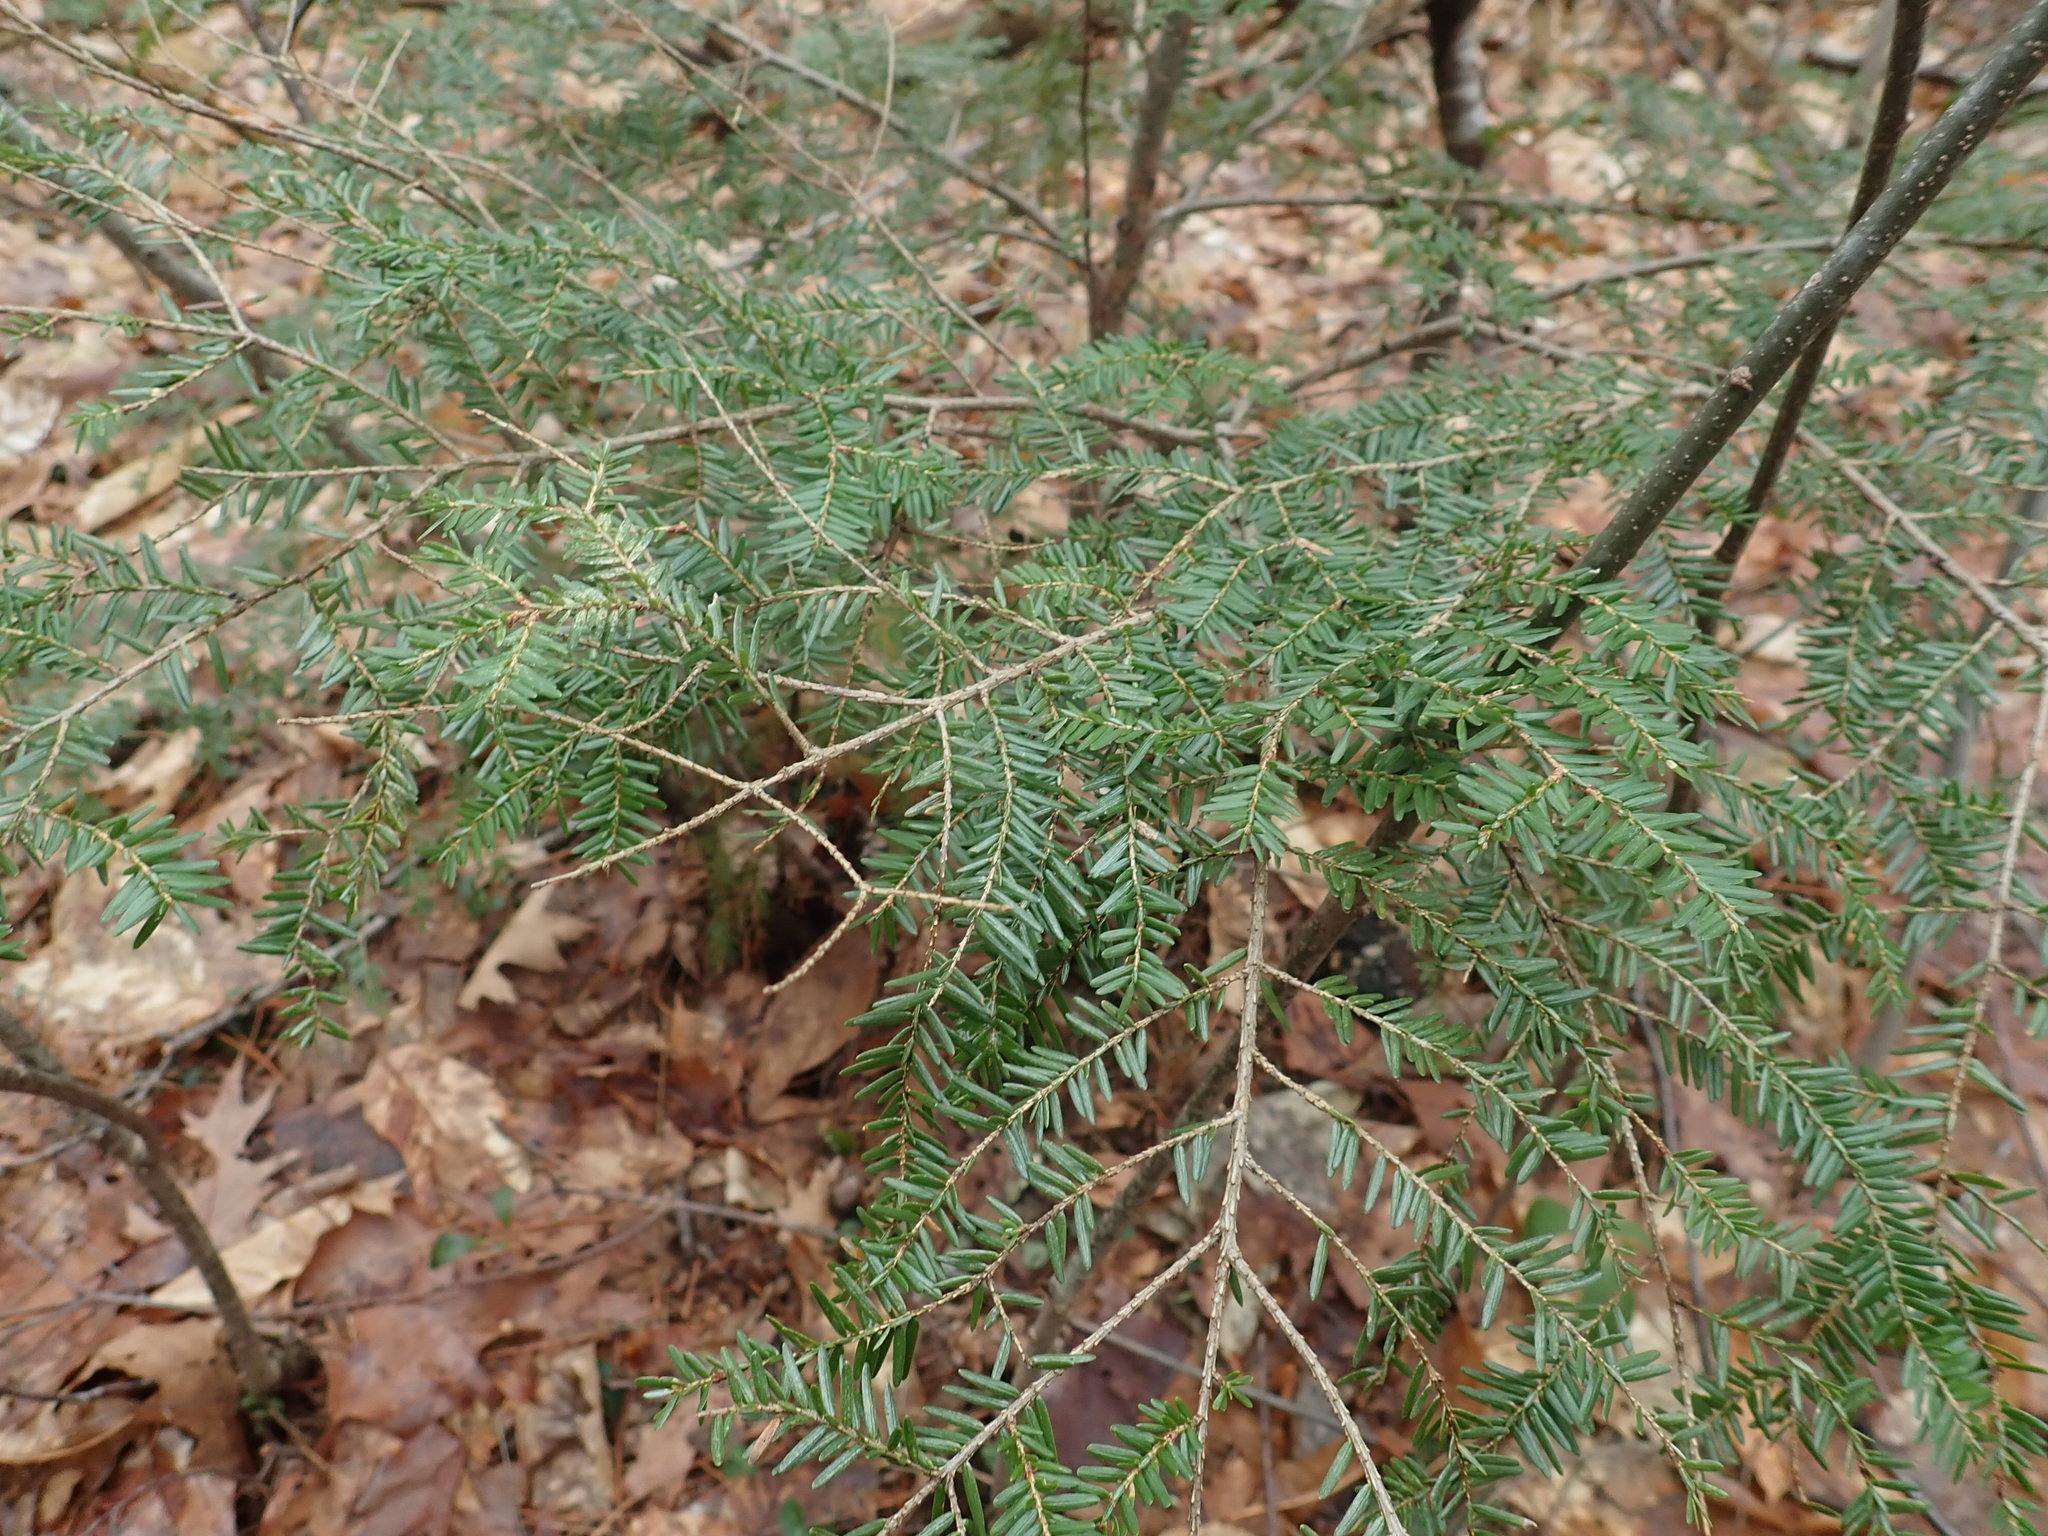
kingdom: Plantae
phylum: Tracheophyta
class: Pinopsida
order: Pinales
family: Pinaceae
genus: Tsuga
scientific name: Tsuga canadensis
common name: Eastern hemlock
